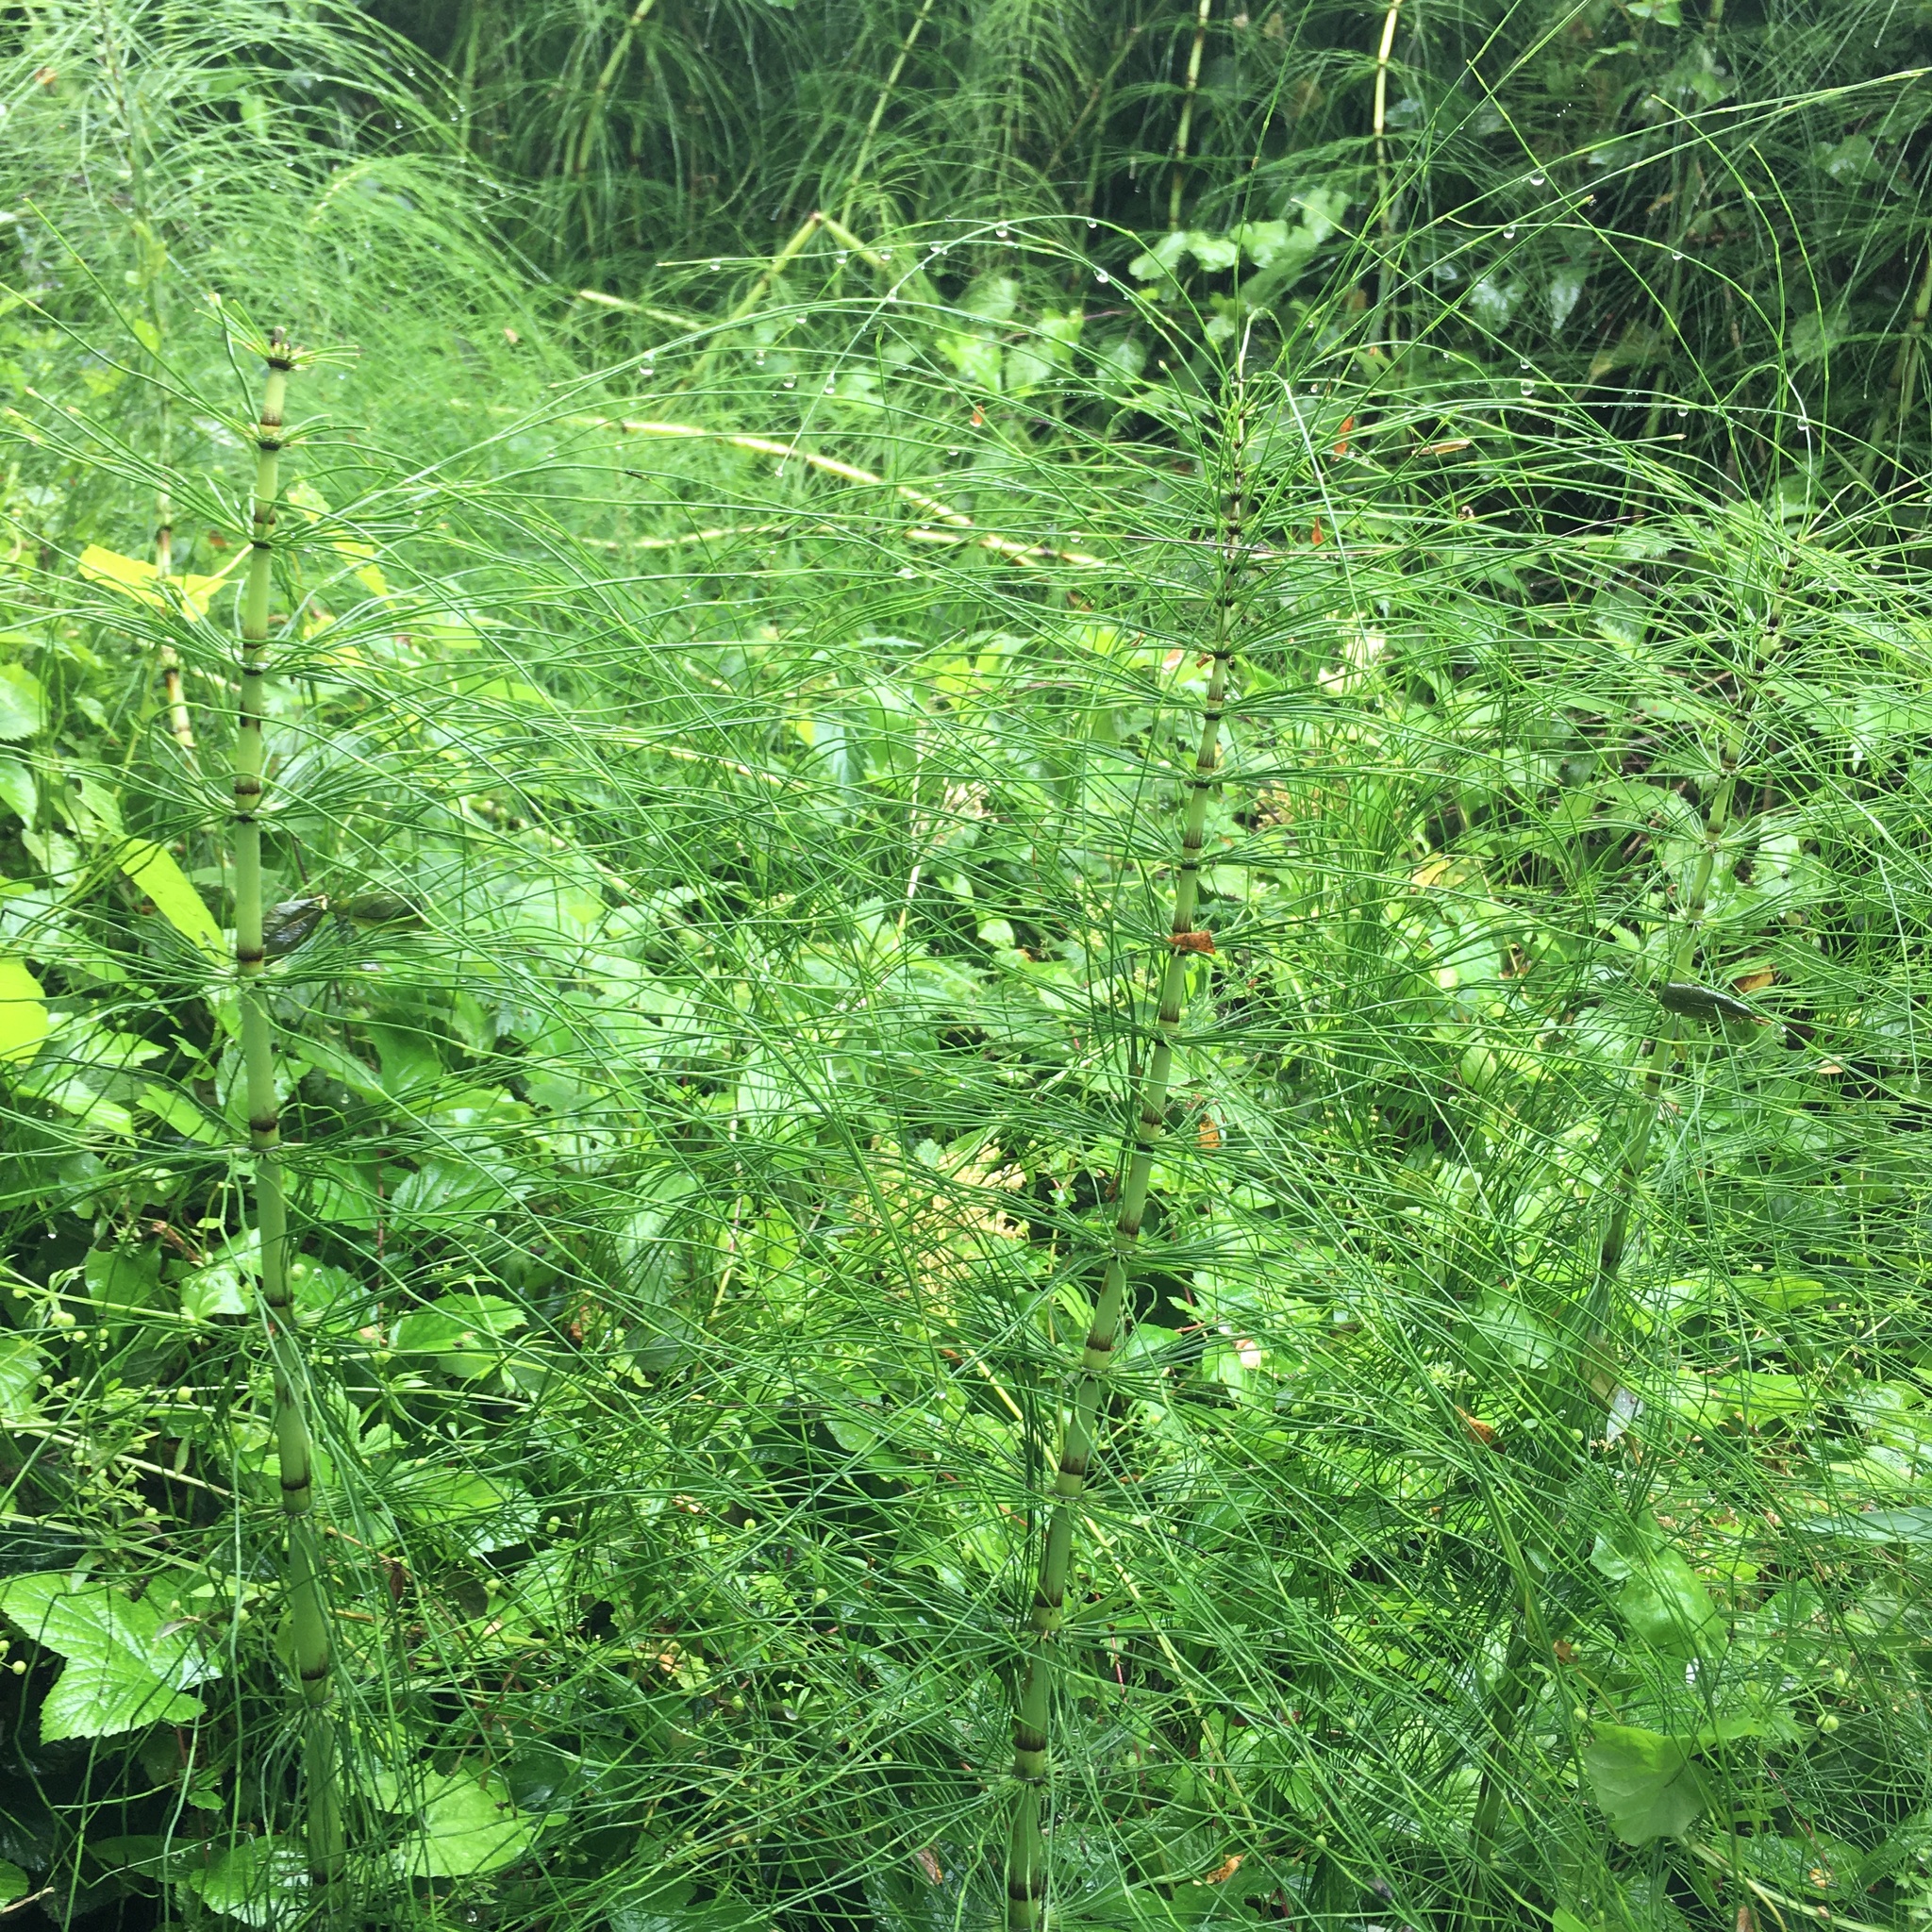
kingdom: Plantae
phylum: Tracheophyta
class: Polypodiopsida
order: Equisetales
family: Equisetaceae
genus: Equisetum
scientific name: Equisetum telmateia
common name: Great horsetail
